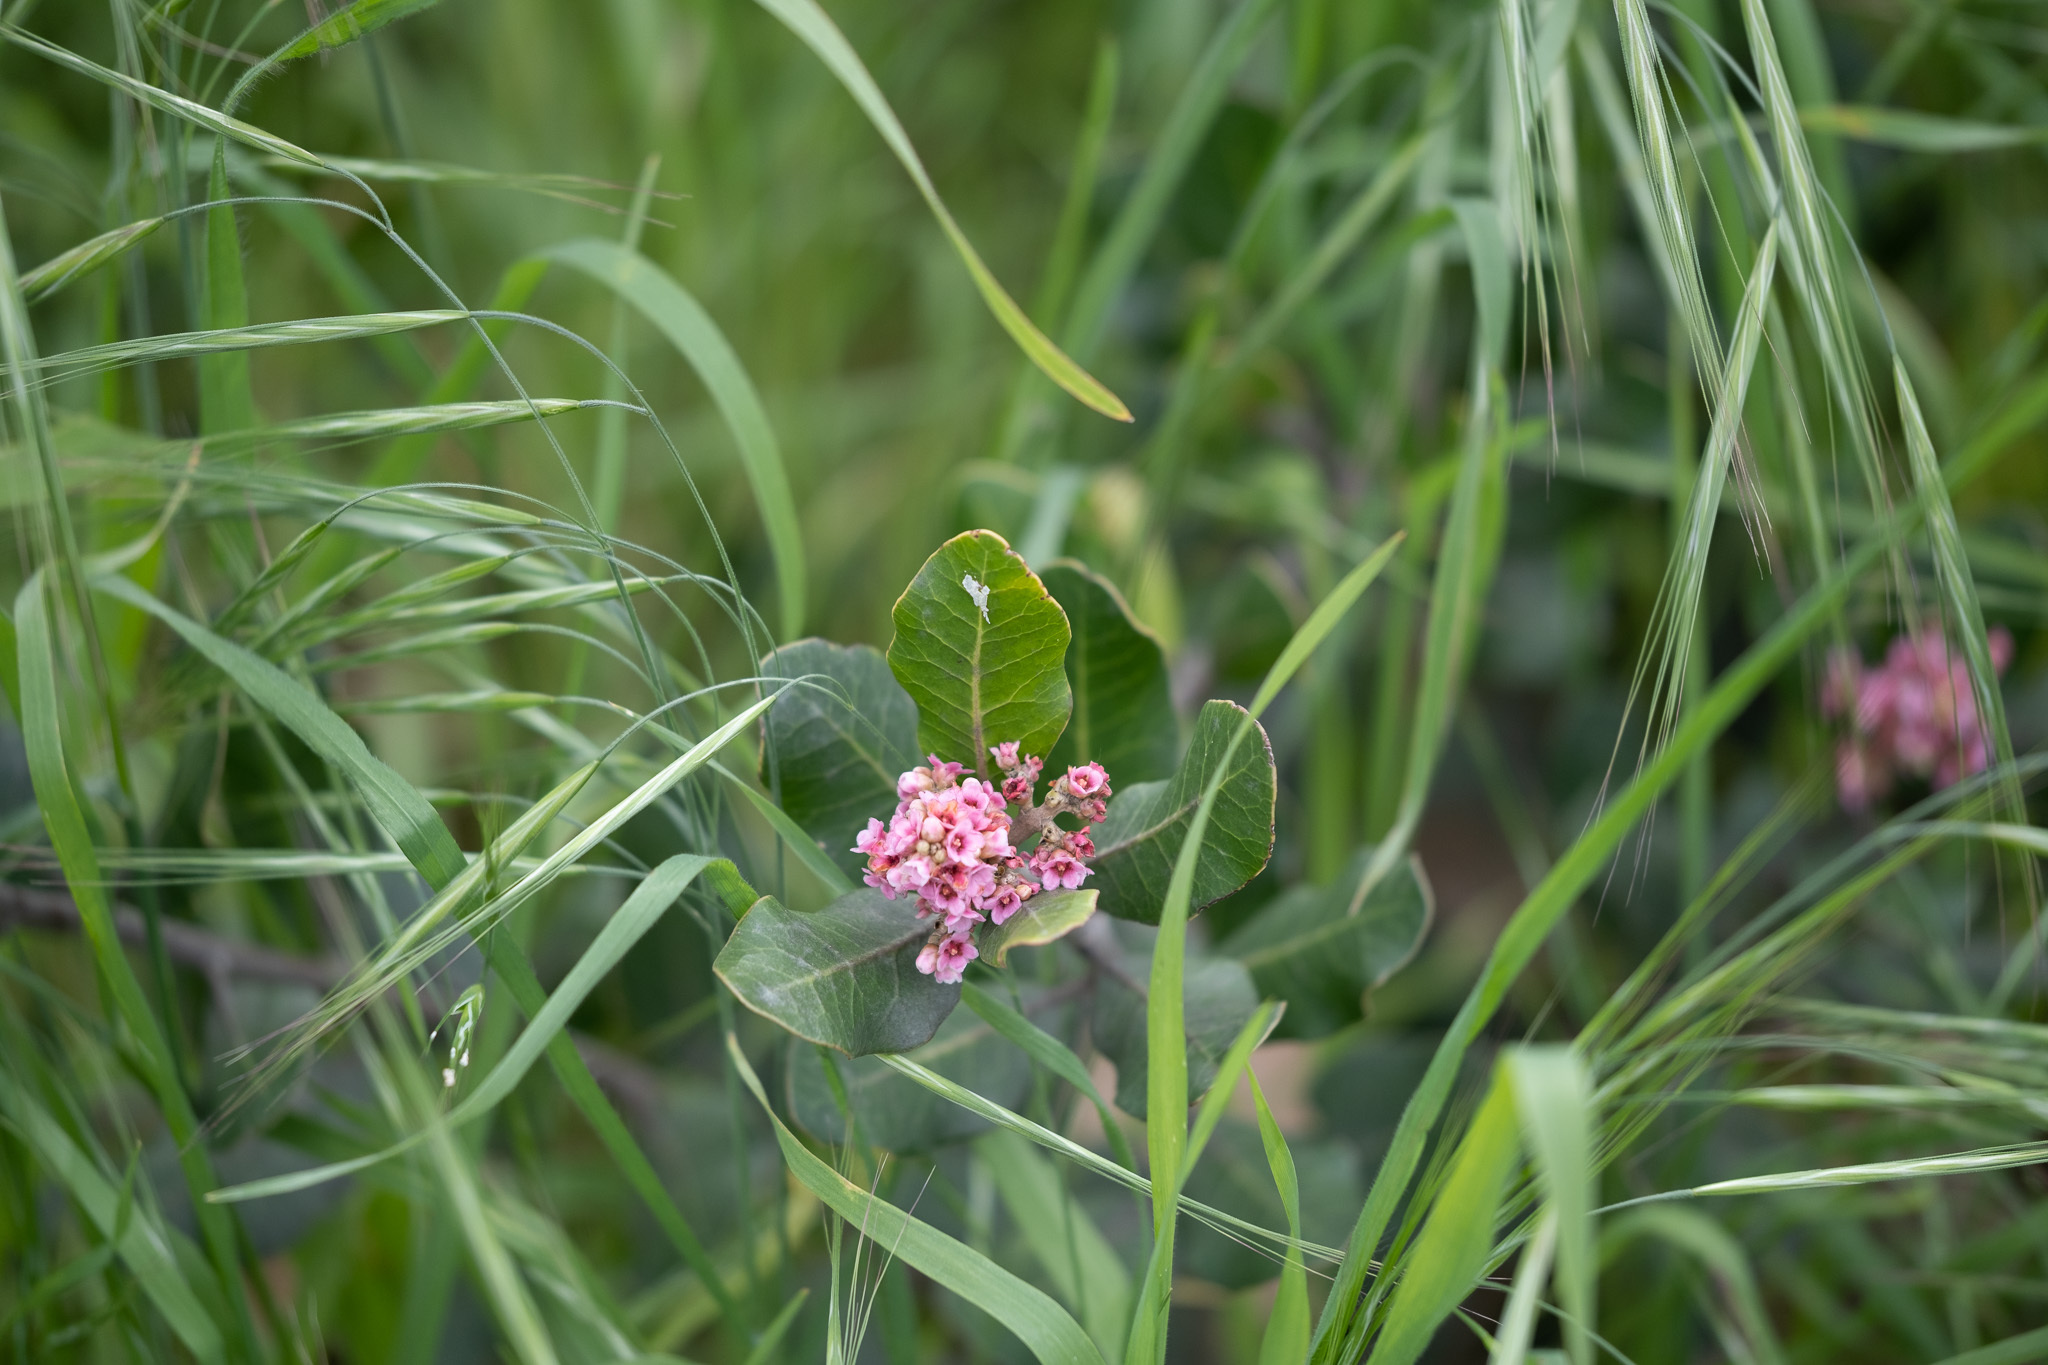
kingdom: Plantae
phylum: Tracheophyta
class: Magnoliopsida
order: Sapindales
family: Anacardiaceae
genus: Rhus
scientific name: Rhus integrifolia
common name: Lemonade sumac
